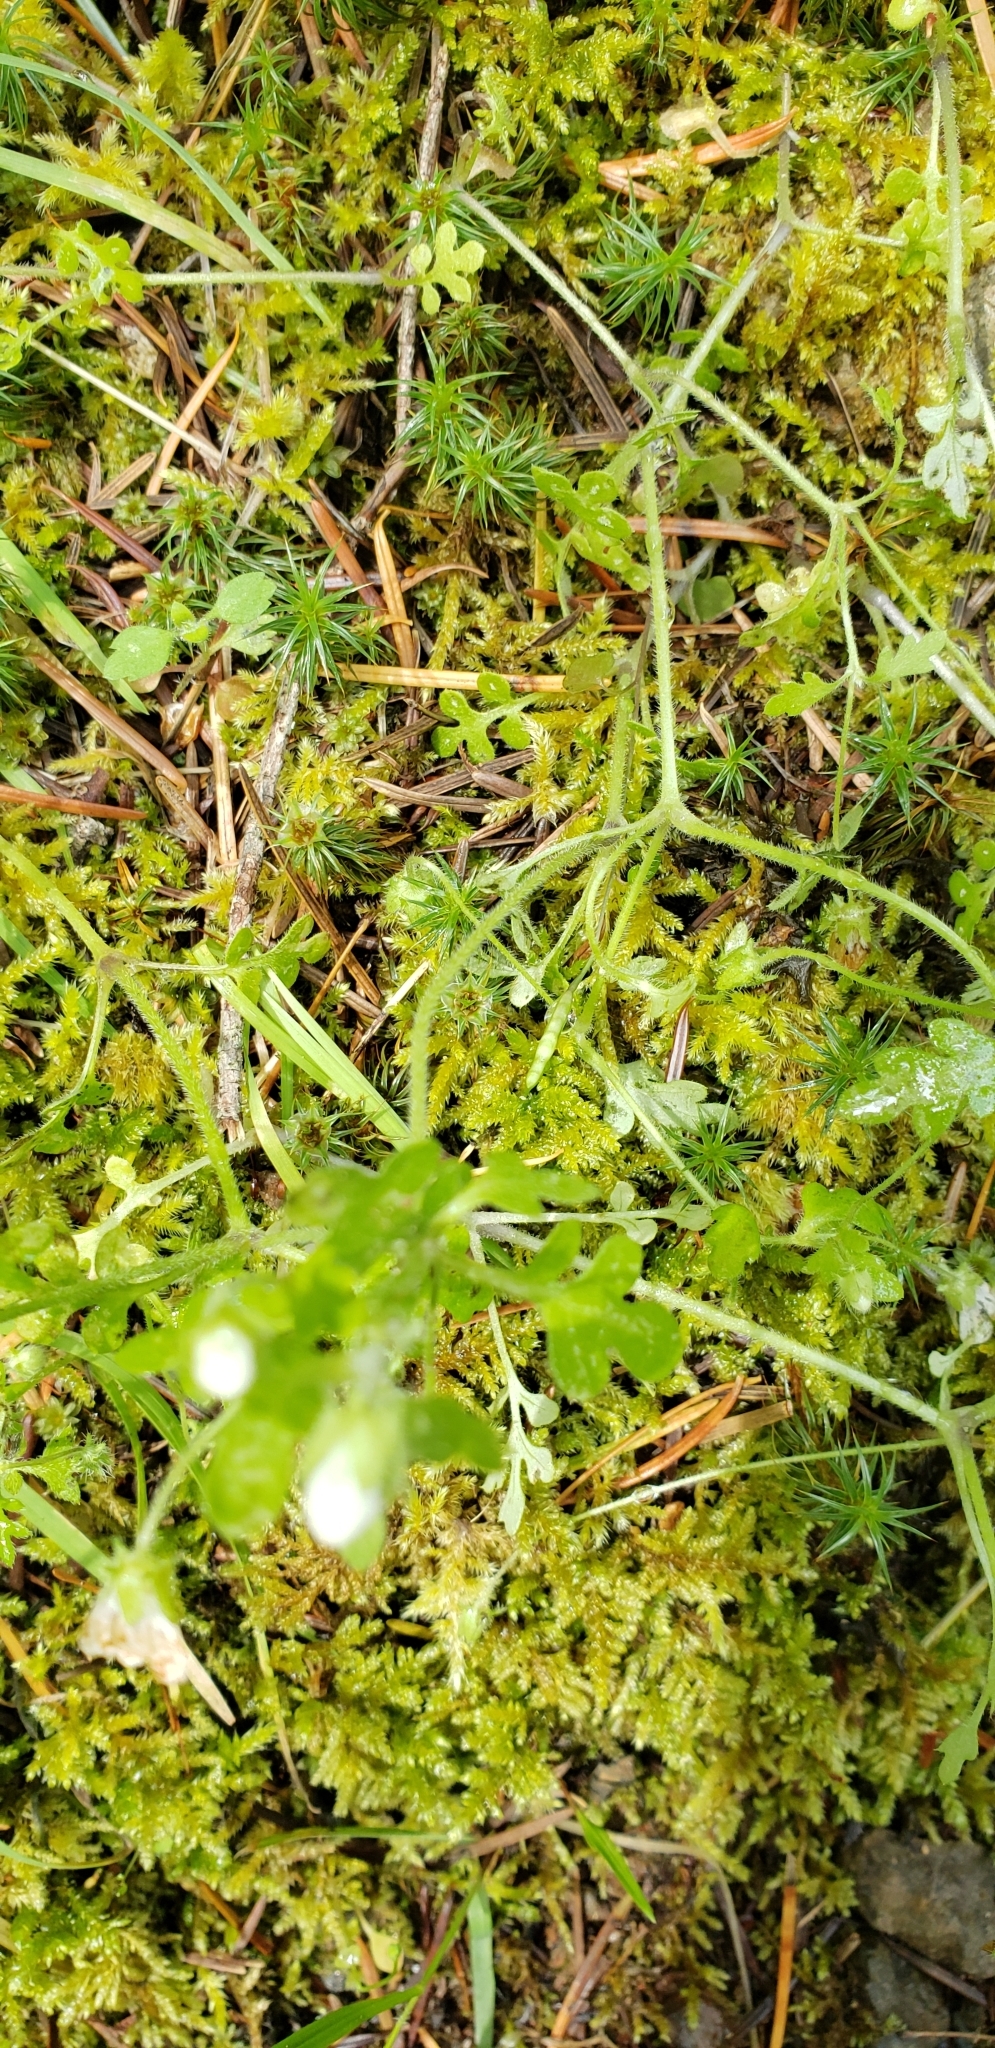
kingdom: Plantae
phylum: Tracheophyta
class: Magnoliopsida
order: Boraginales
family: Hydrophyllaceae
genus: Nemophila
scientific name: Nemophila heterophylla
